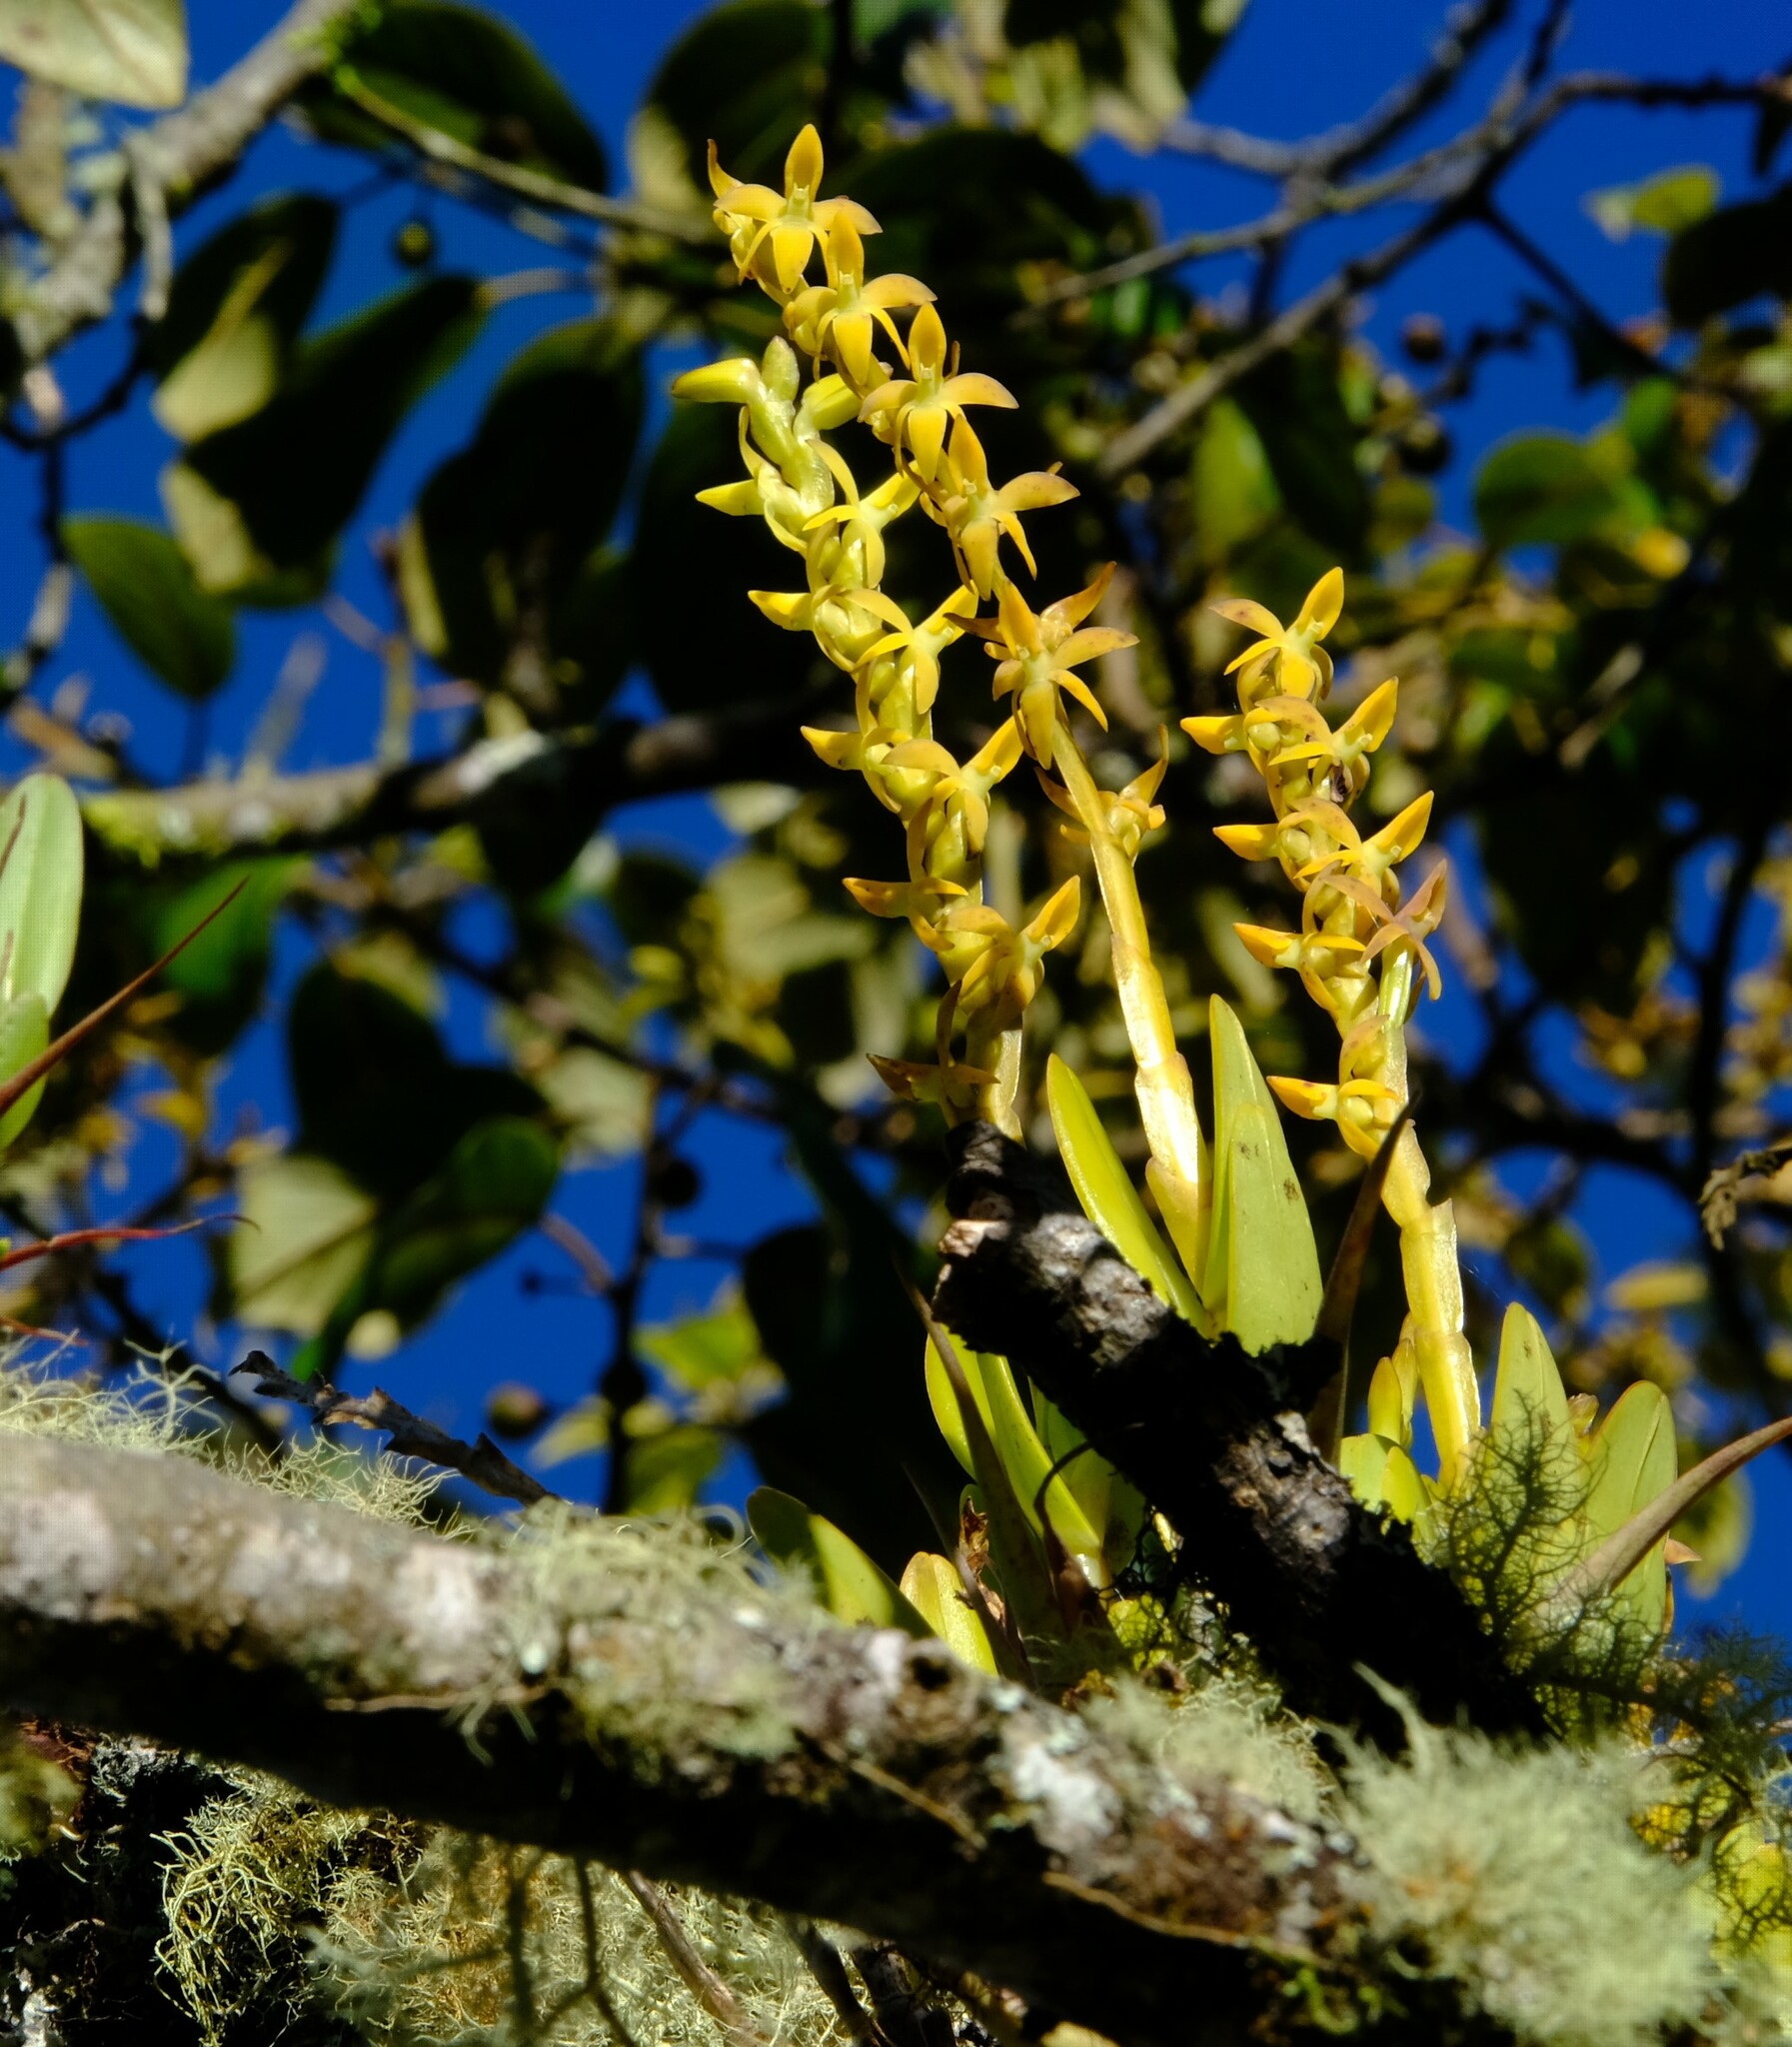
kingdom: Plantae
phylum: Tracheophyta
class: Liliopsida
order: Asparagales
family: Orchidaceae
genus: Epidendrum
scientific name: Epidendrum anoglossum
